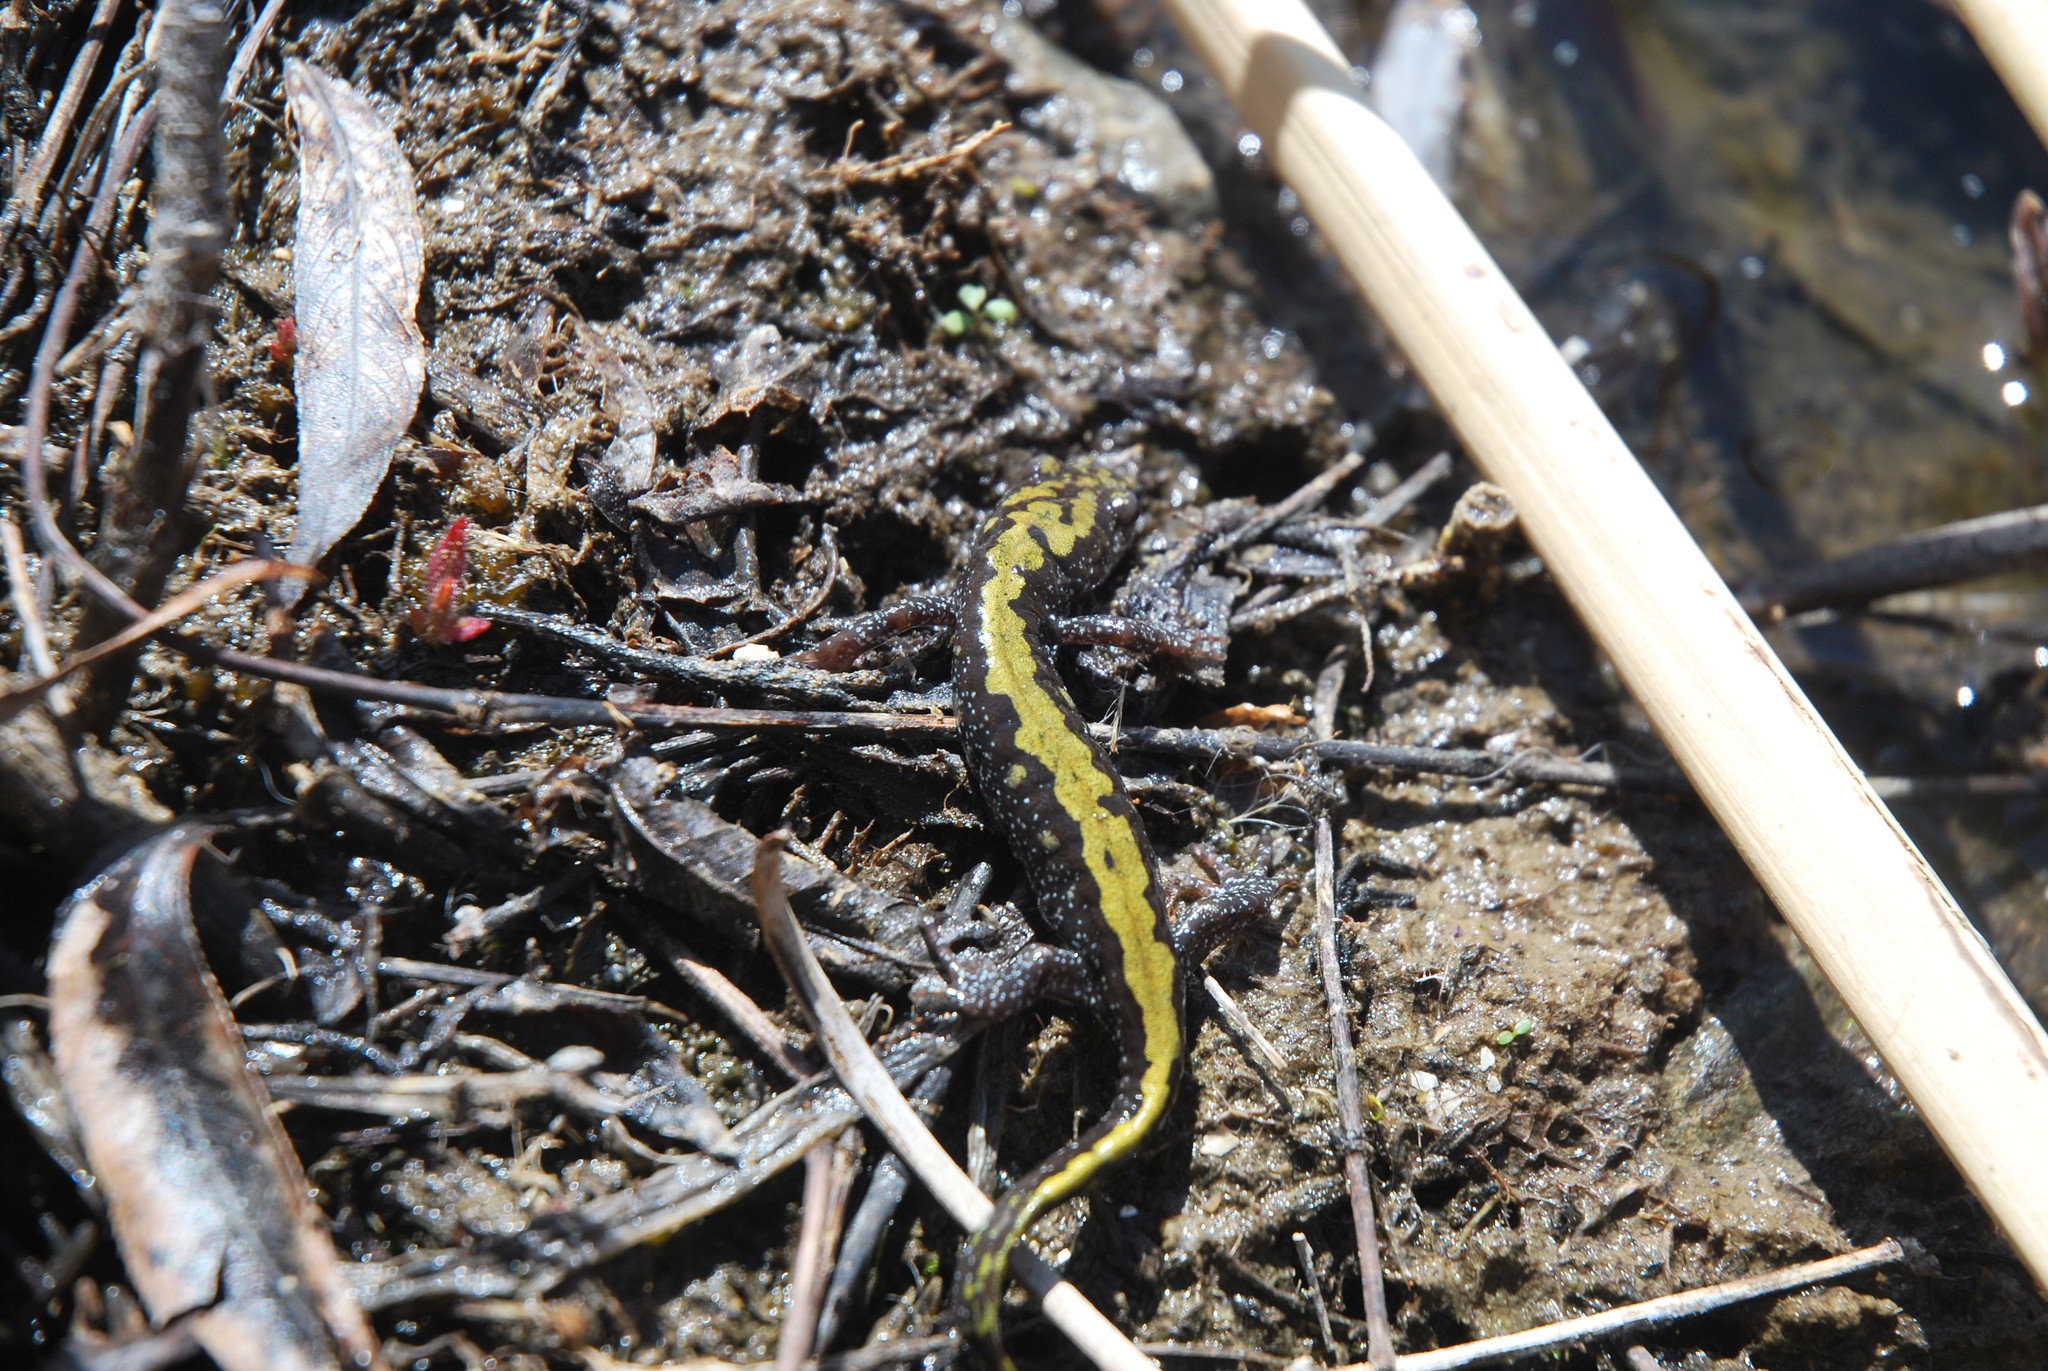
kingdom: Animalia
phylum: Chordata
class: Amphibia
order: Caudata
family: Ambystomatidae
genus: Ambystoma
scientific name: Ambystoma macrodactylum
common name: Long-toed salamander
